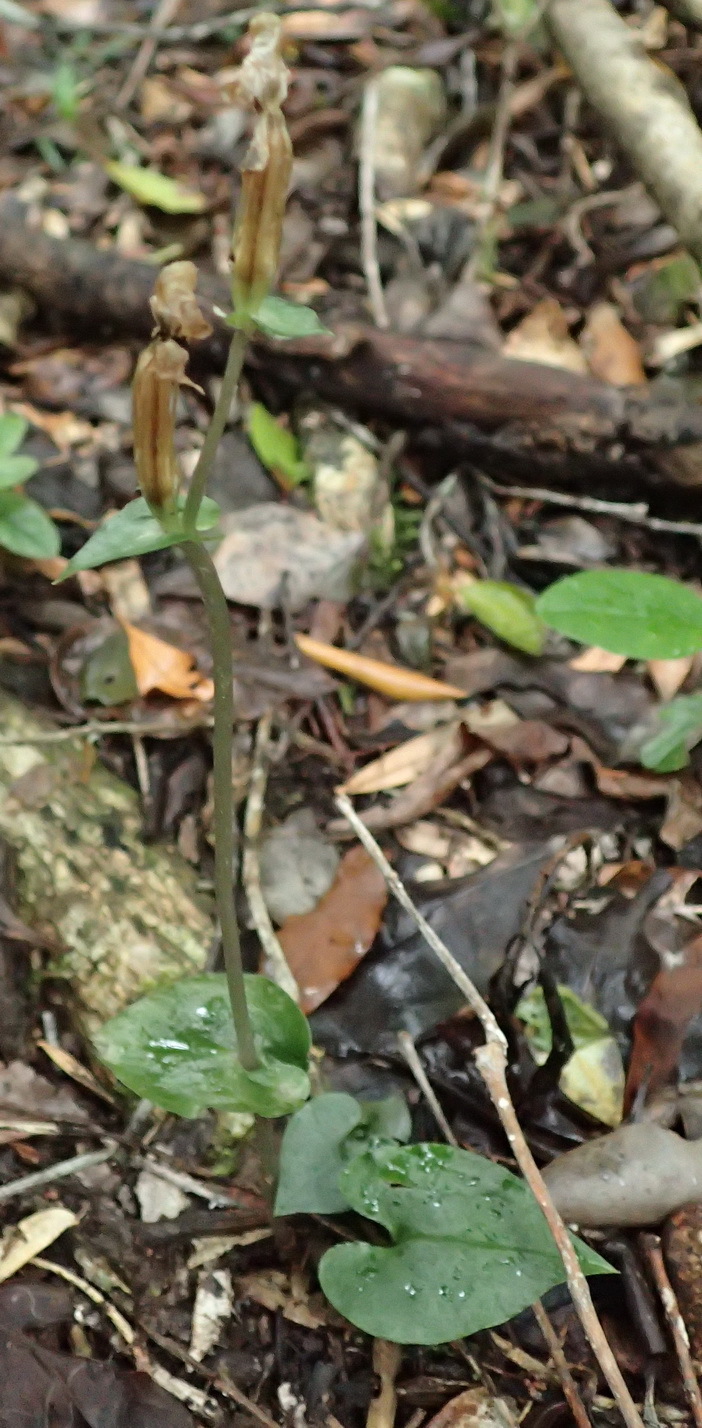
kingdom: Plantae
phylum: Tracheophyta
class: Liliopsida
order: Asparagales
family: Orchidaceae
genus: Disperis
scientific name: Disperis lindleyana
